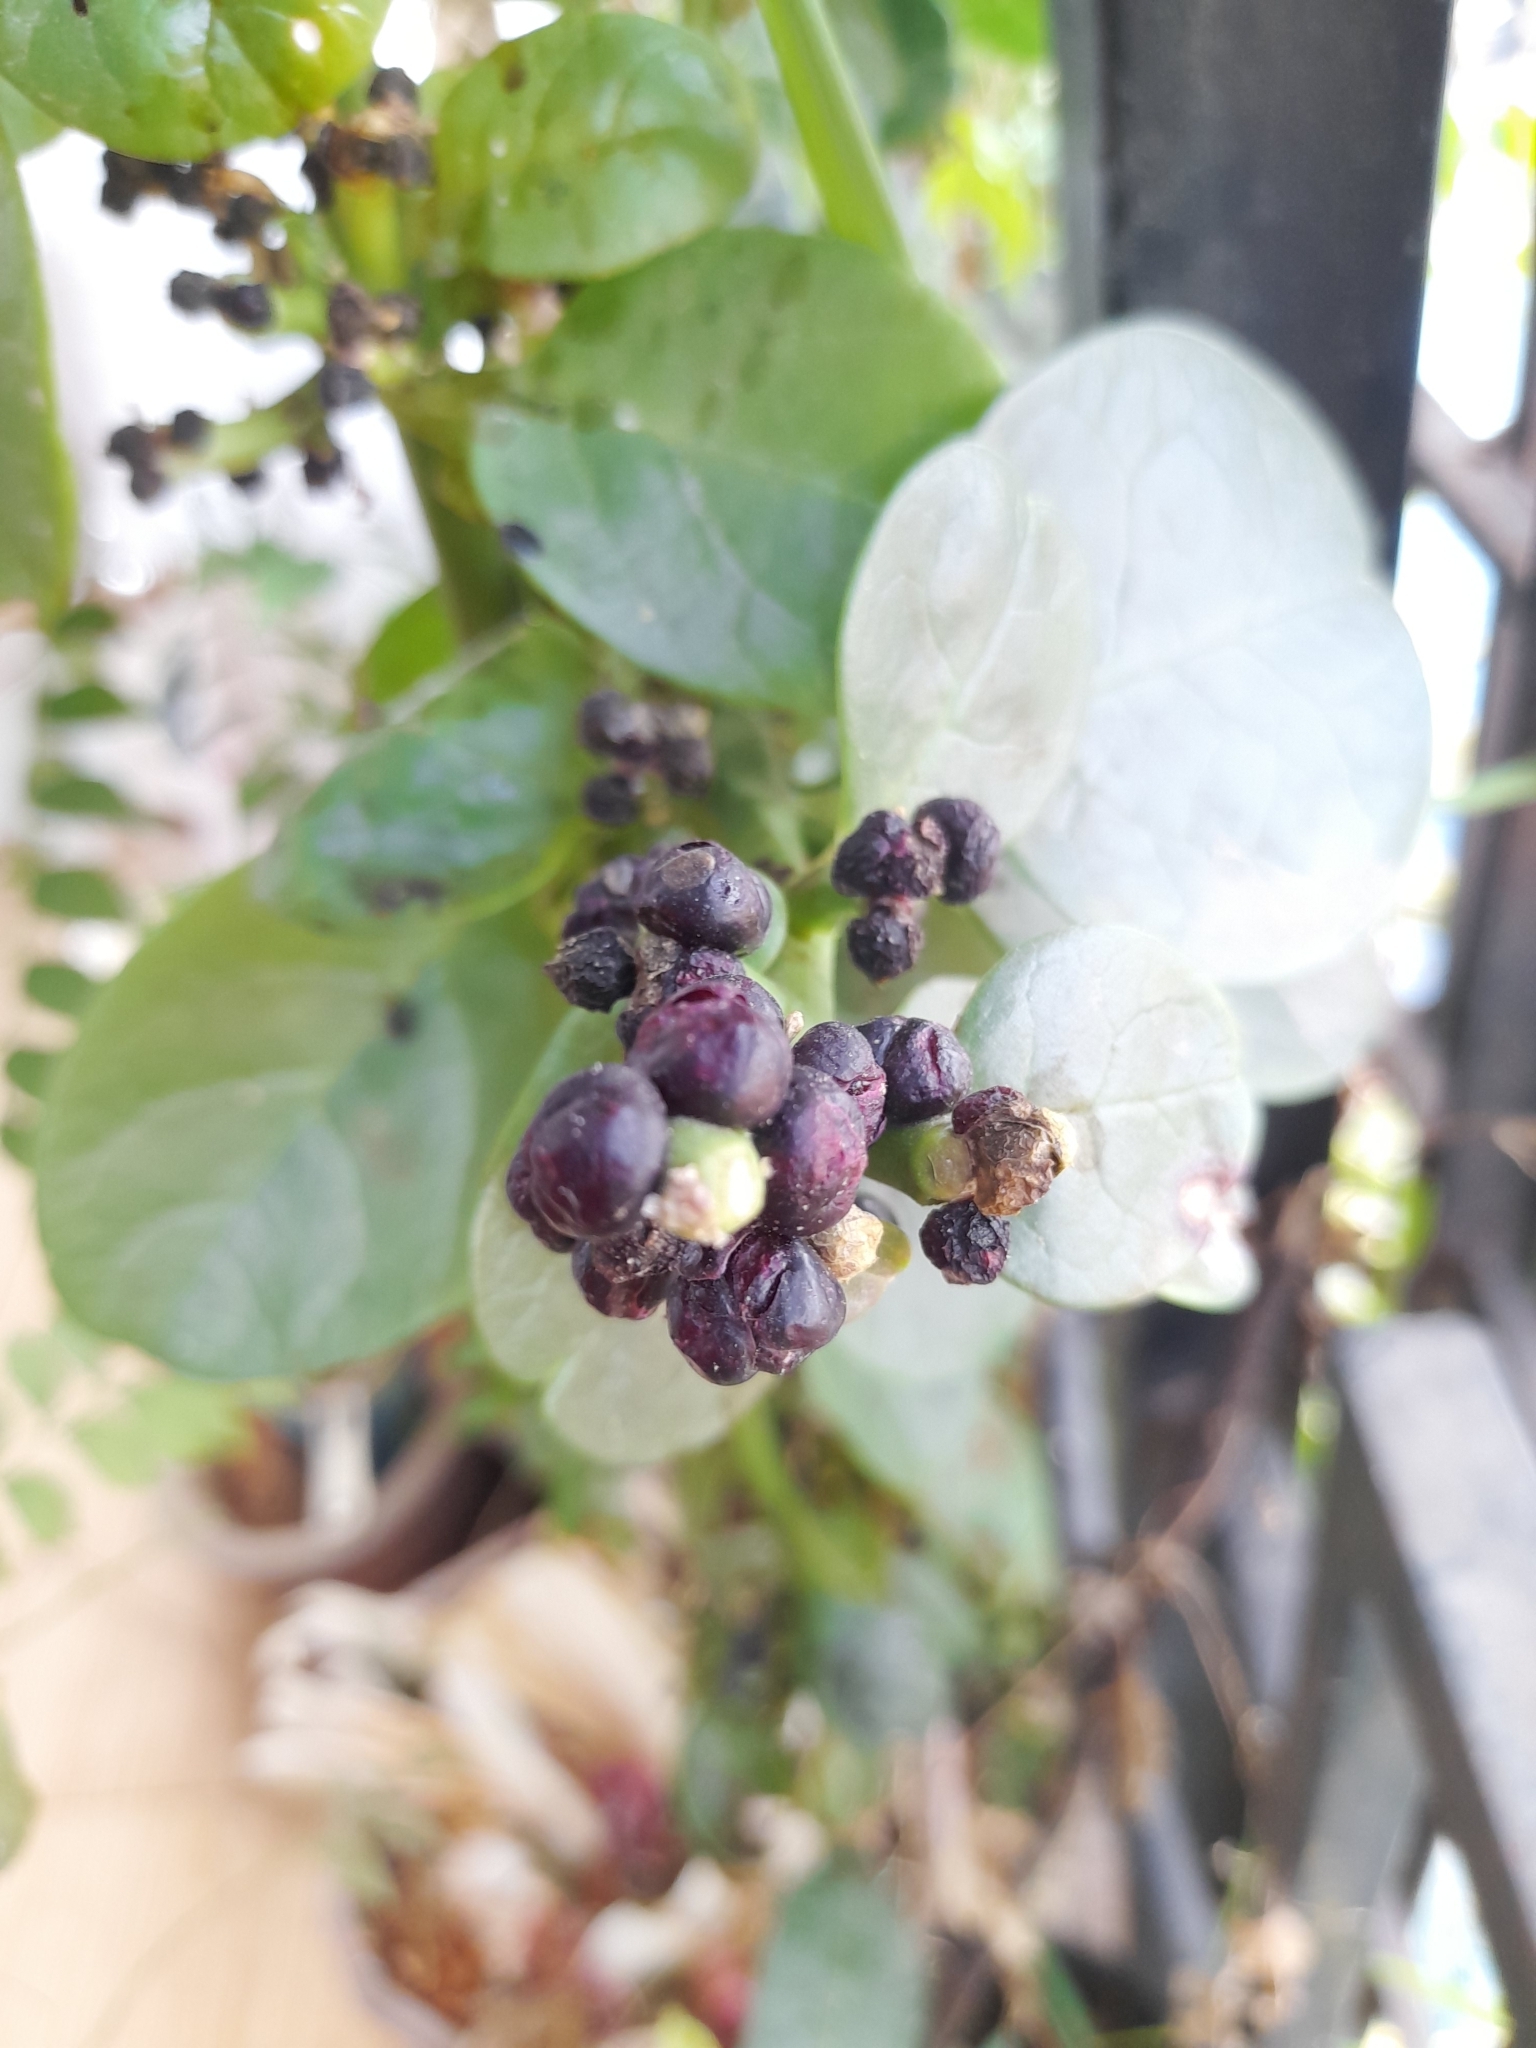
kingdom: Plantae
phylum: Tracheophyta
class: Magnoliopsida
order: Caryophyllales
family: Basellaceae
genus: Basella
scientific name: Basella alba
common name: Indian spinach
